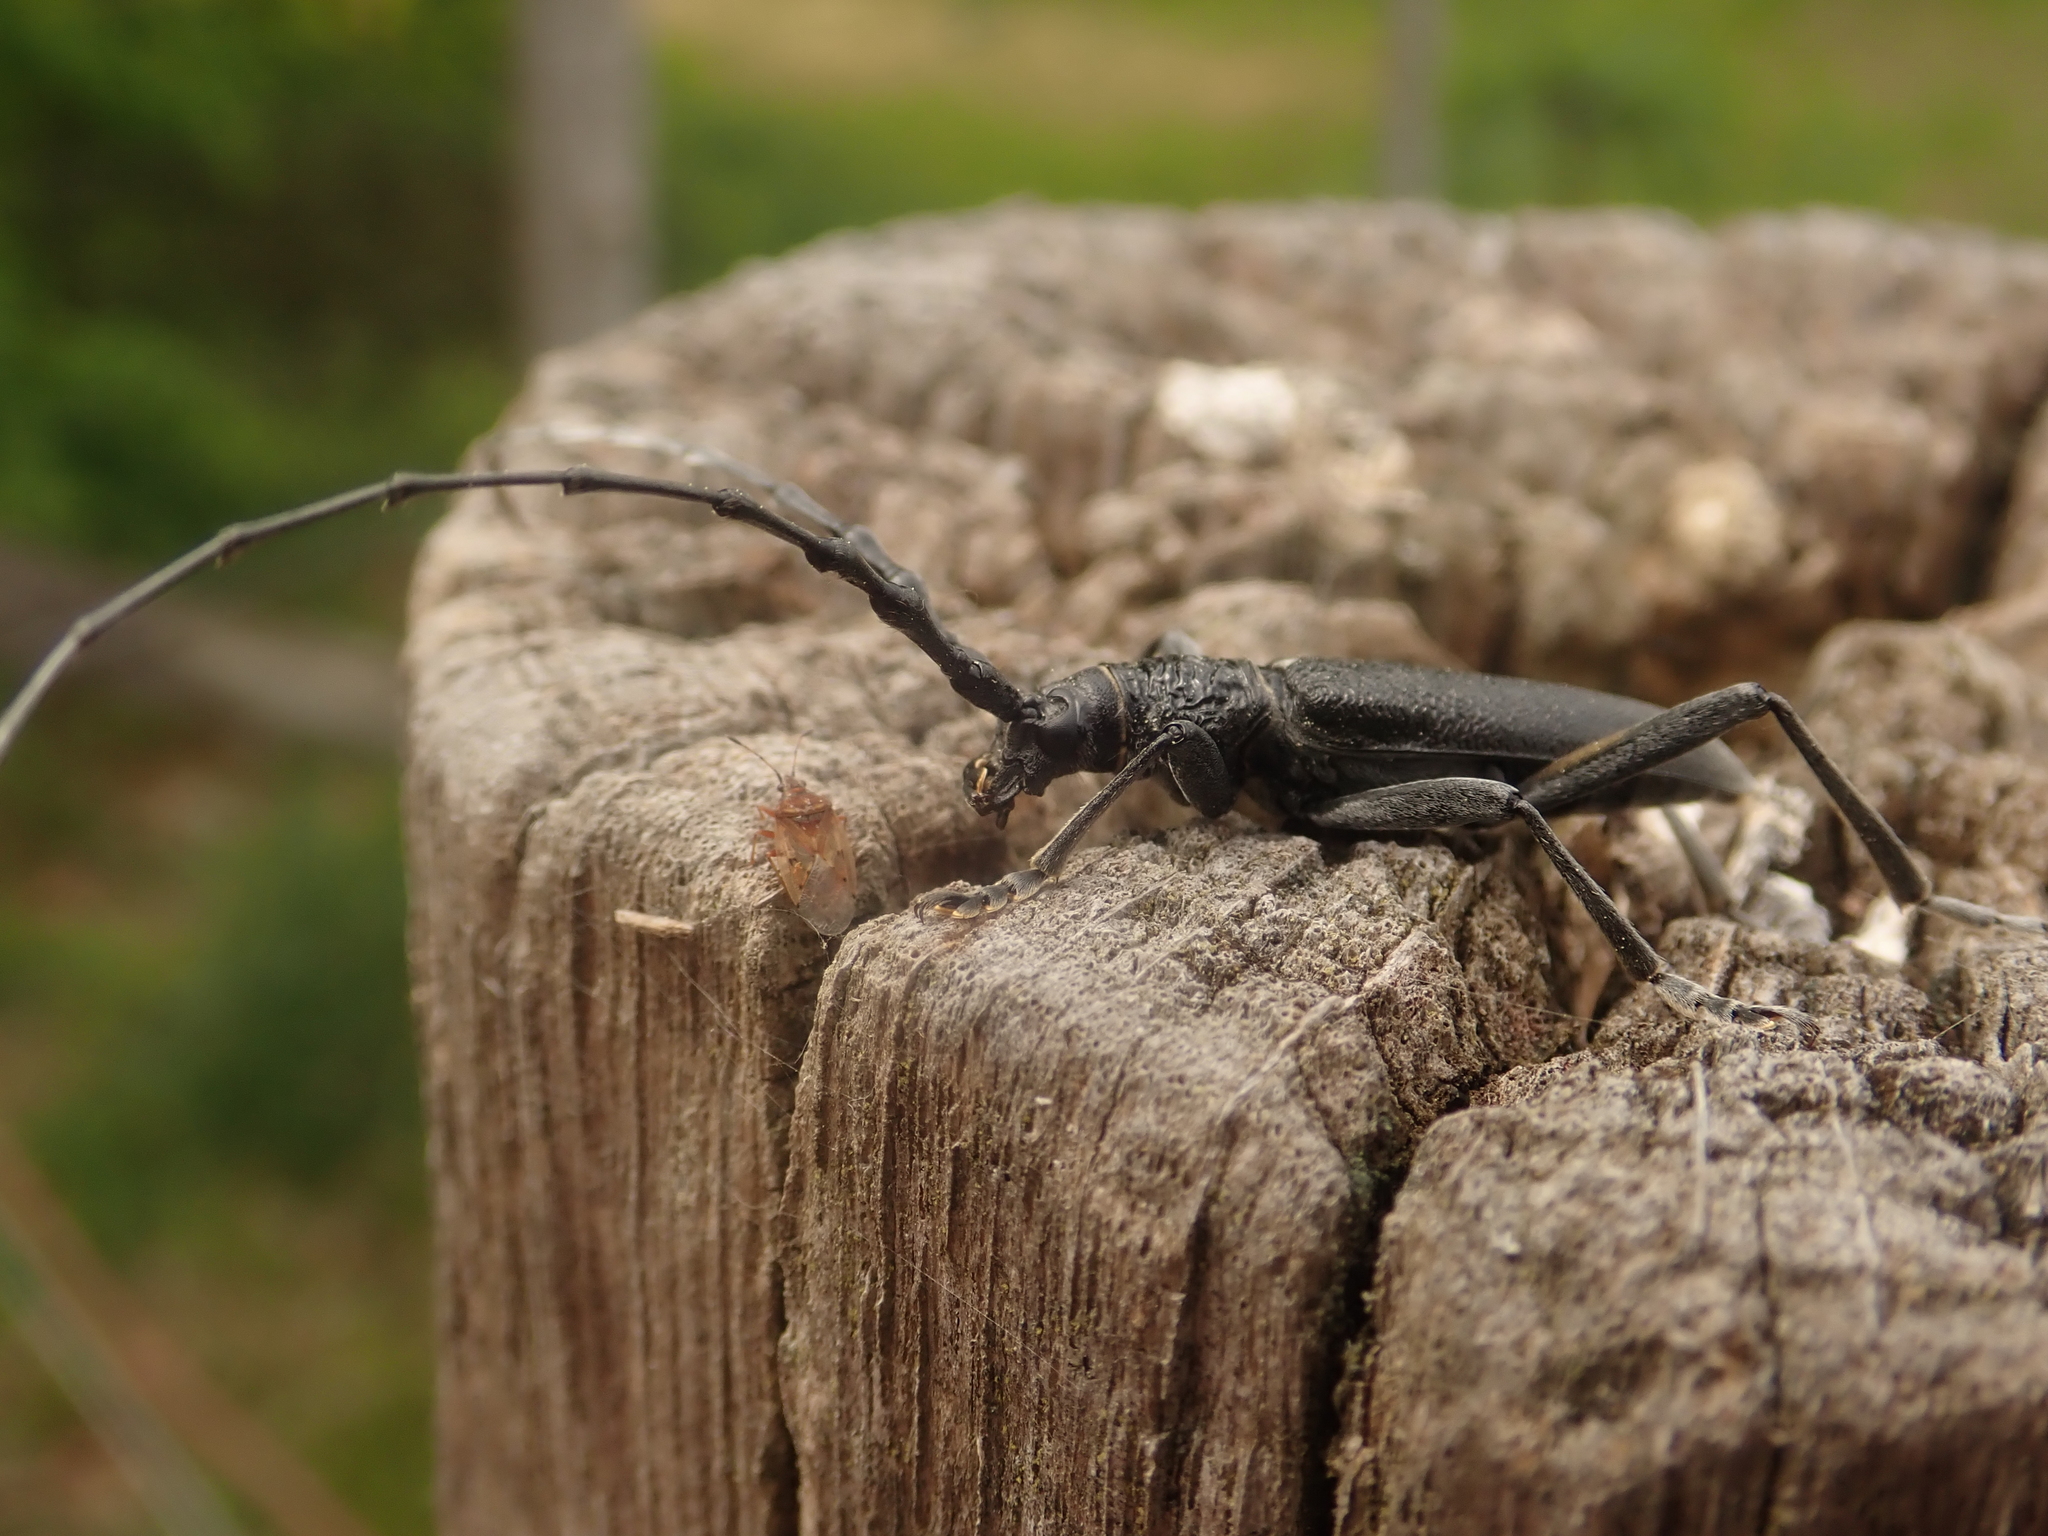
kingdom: Animalia
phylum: Arthropoda
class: Insecta
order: Coleoptera
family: Cerambycidae
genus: Cerambyx
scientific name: Cerambyx scopolii
